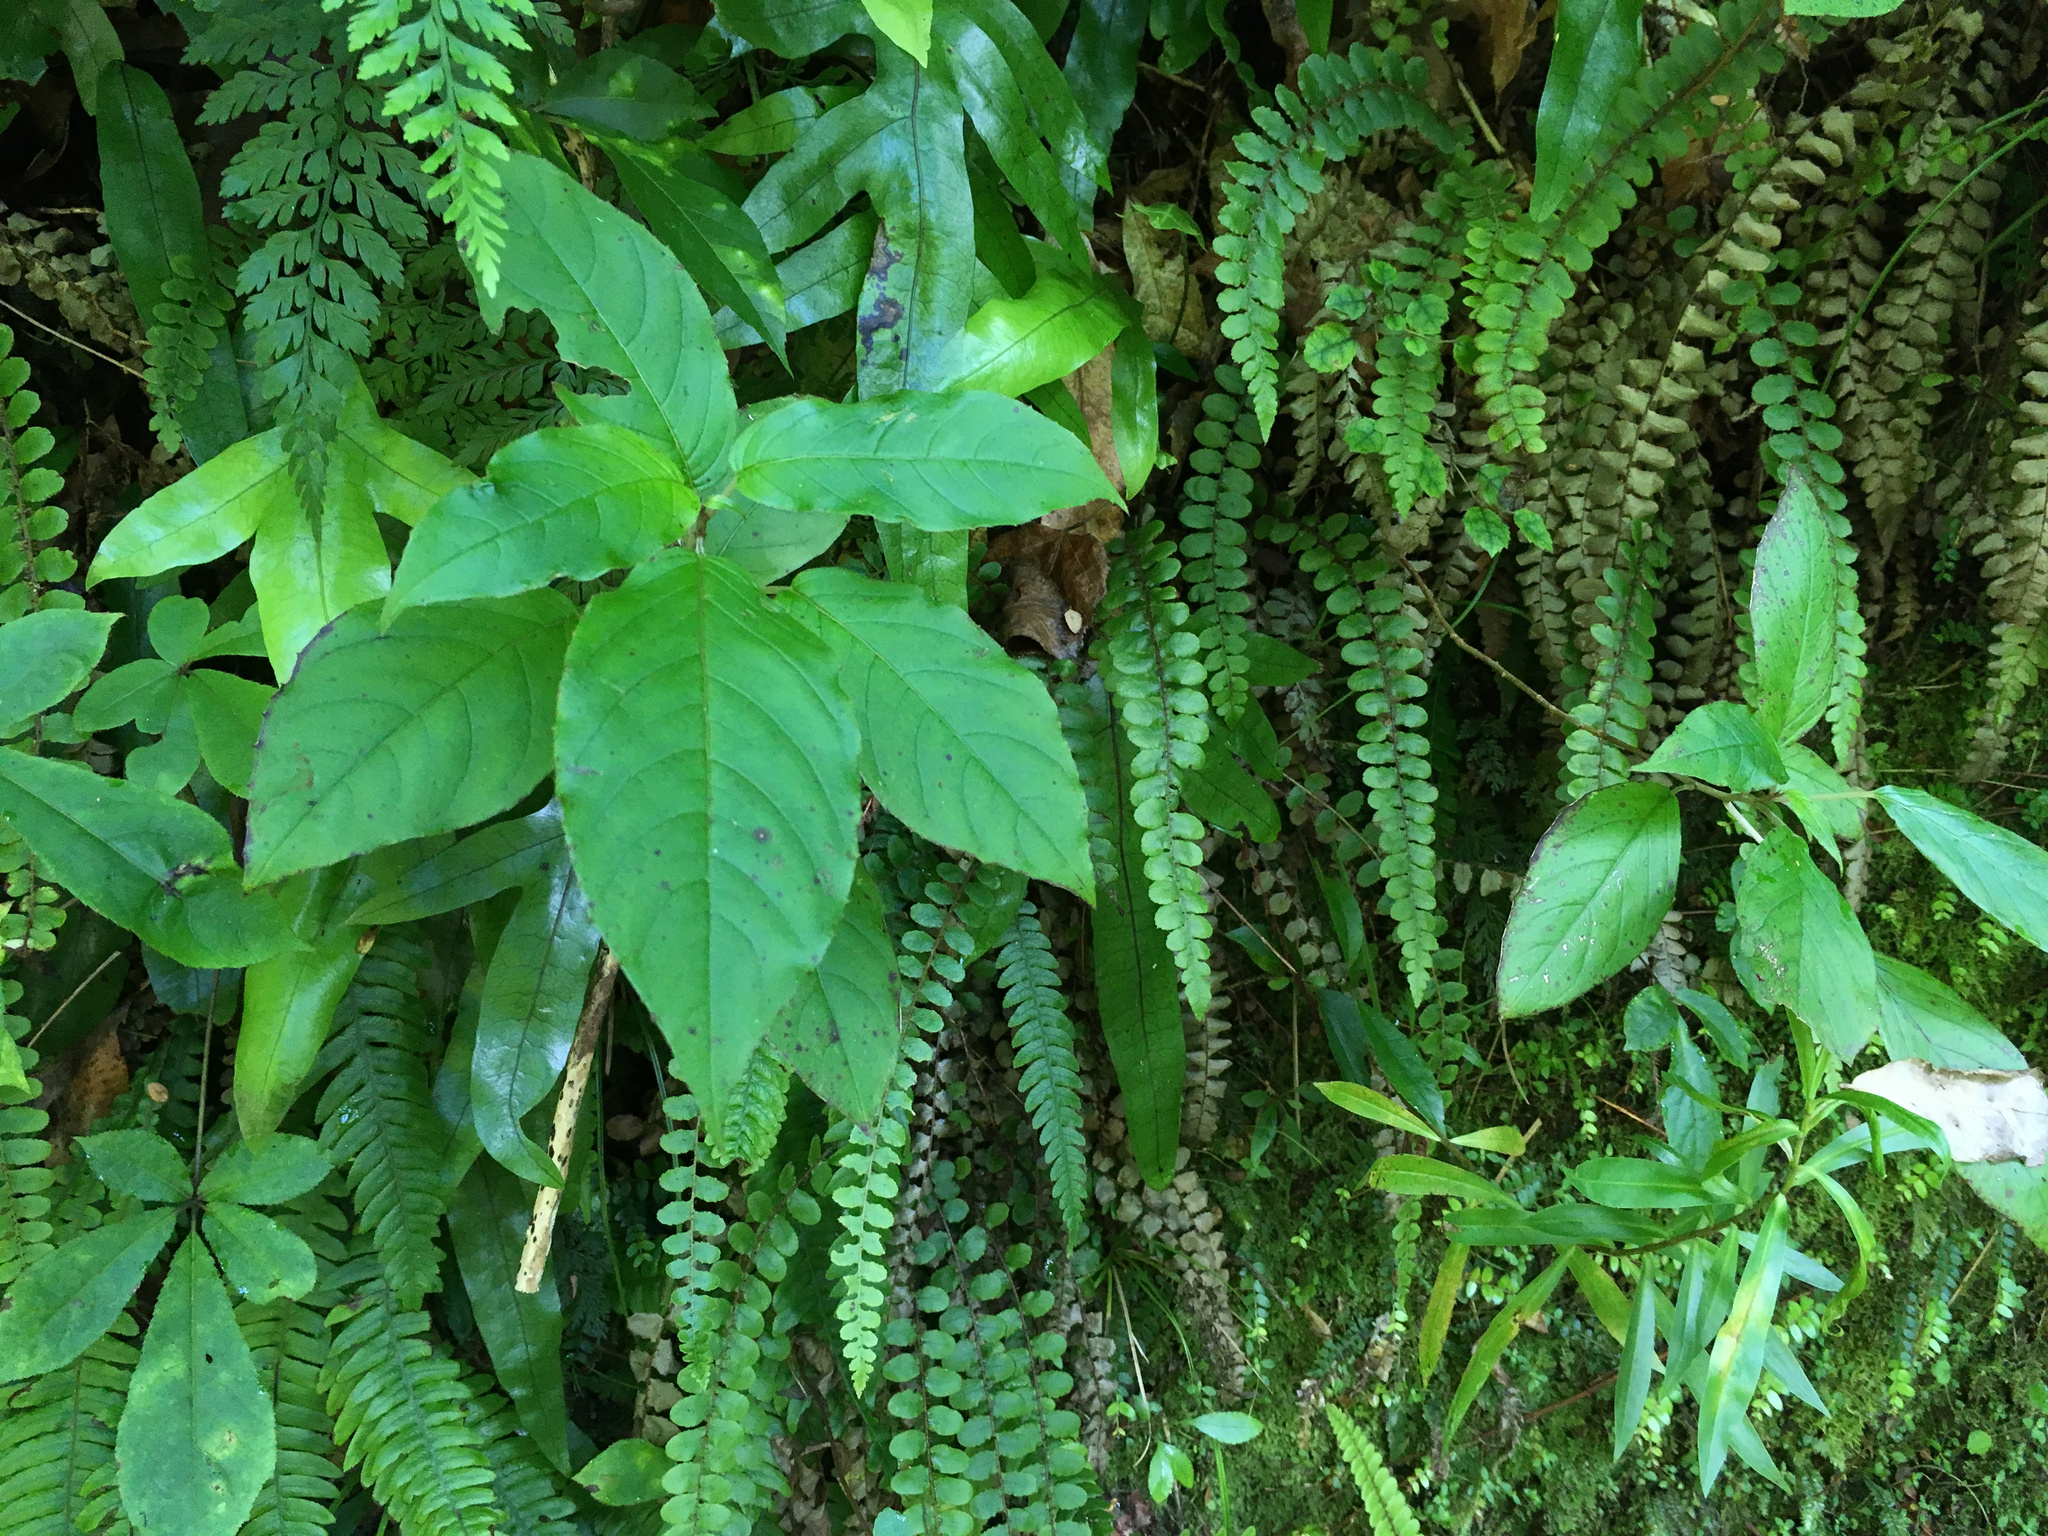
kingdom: Plantae
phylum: Tracheophyta
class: Magnoliopsida
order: Myrtales
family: Onagraceae
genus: Fuchsia
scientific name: Fuchsia excorticata
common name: Tree fuchsia
